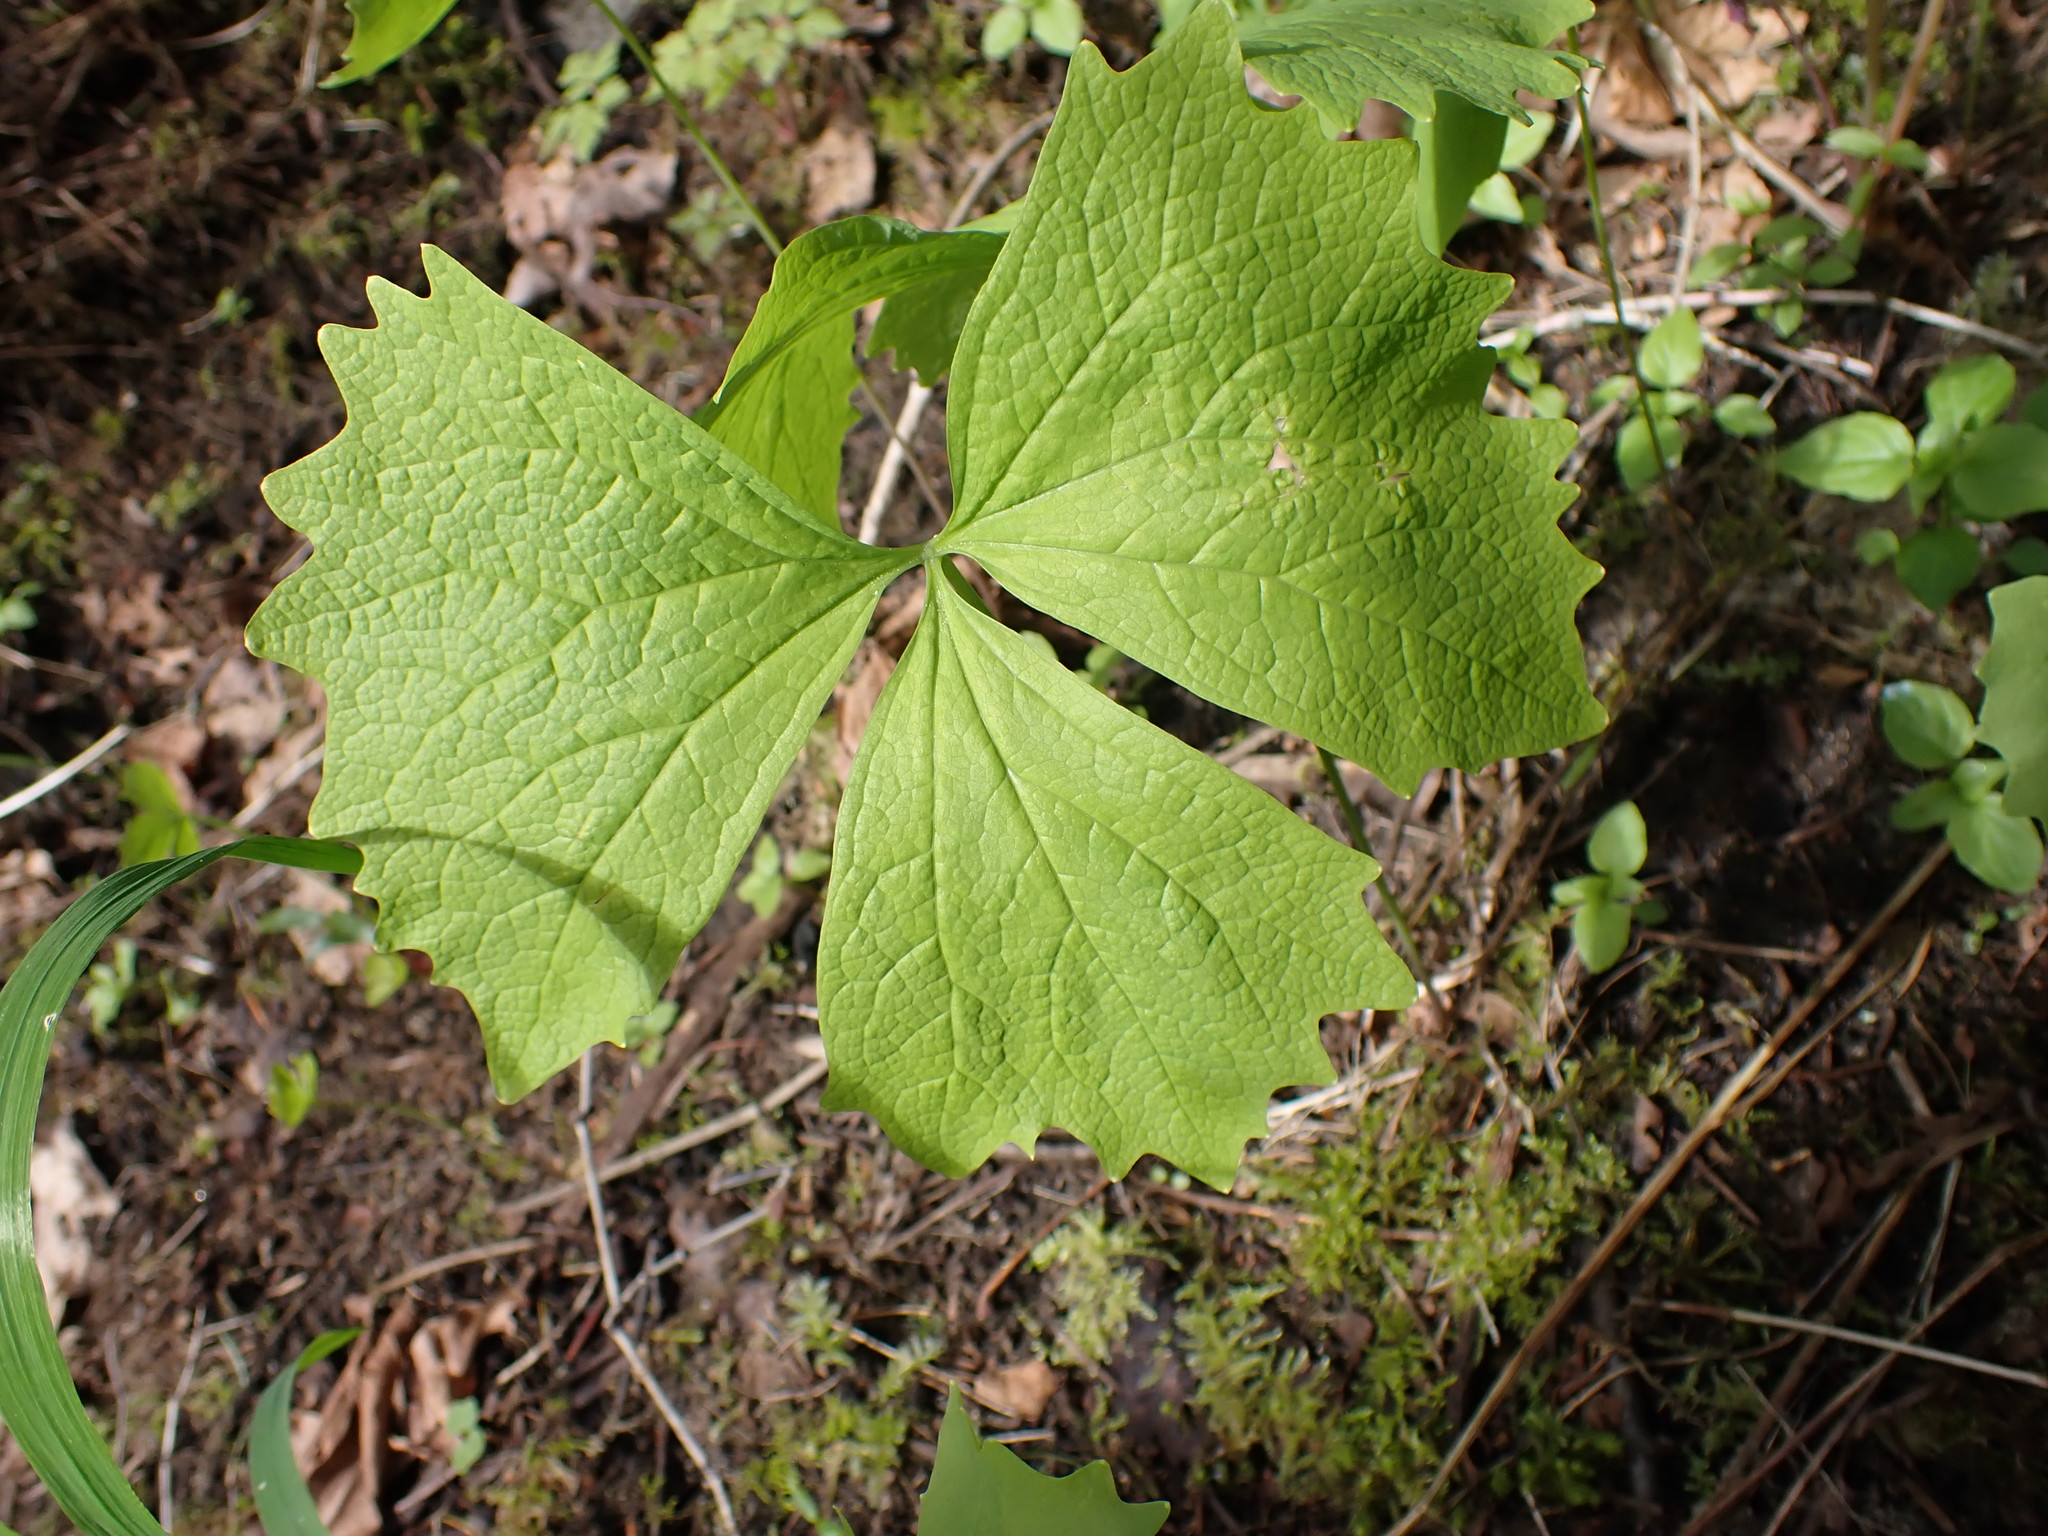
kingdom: Plantae
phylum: Tracheophyta
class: Magnoliopsida
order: Ranunculales
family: Berberidaceae
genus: Achlys
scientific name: Achlys triphylla
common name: Vanilla-leaf
